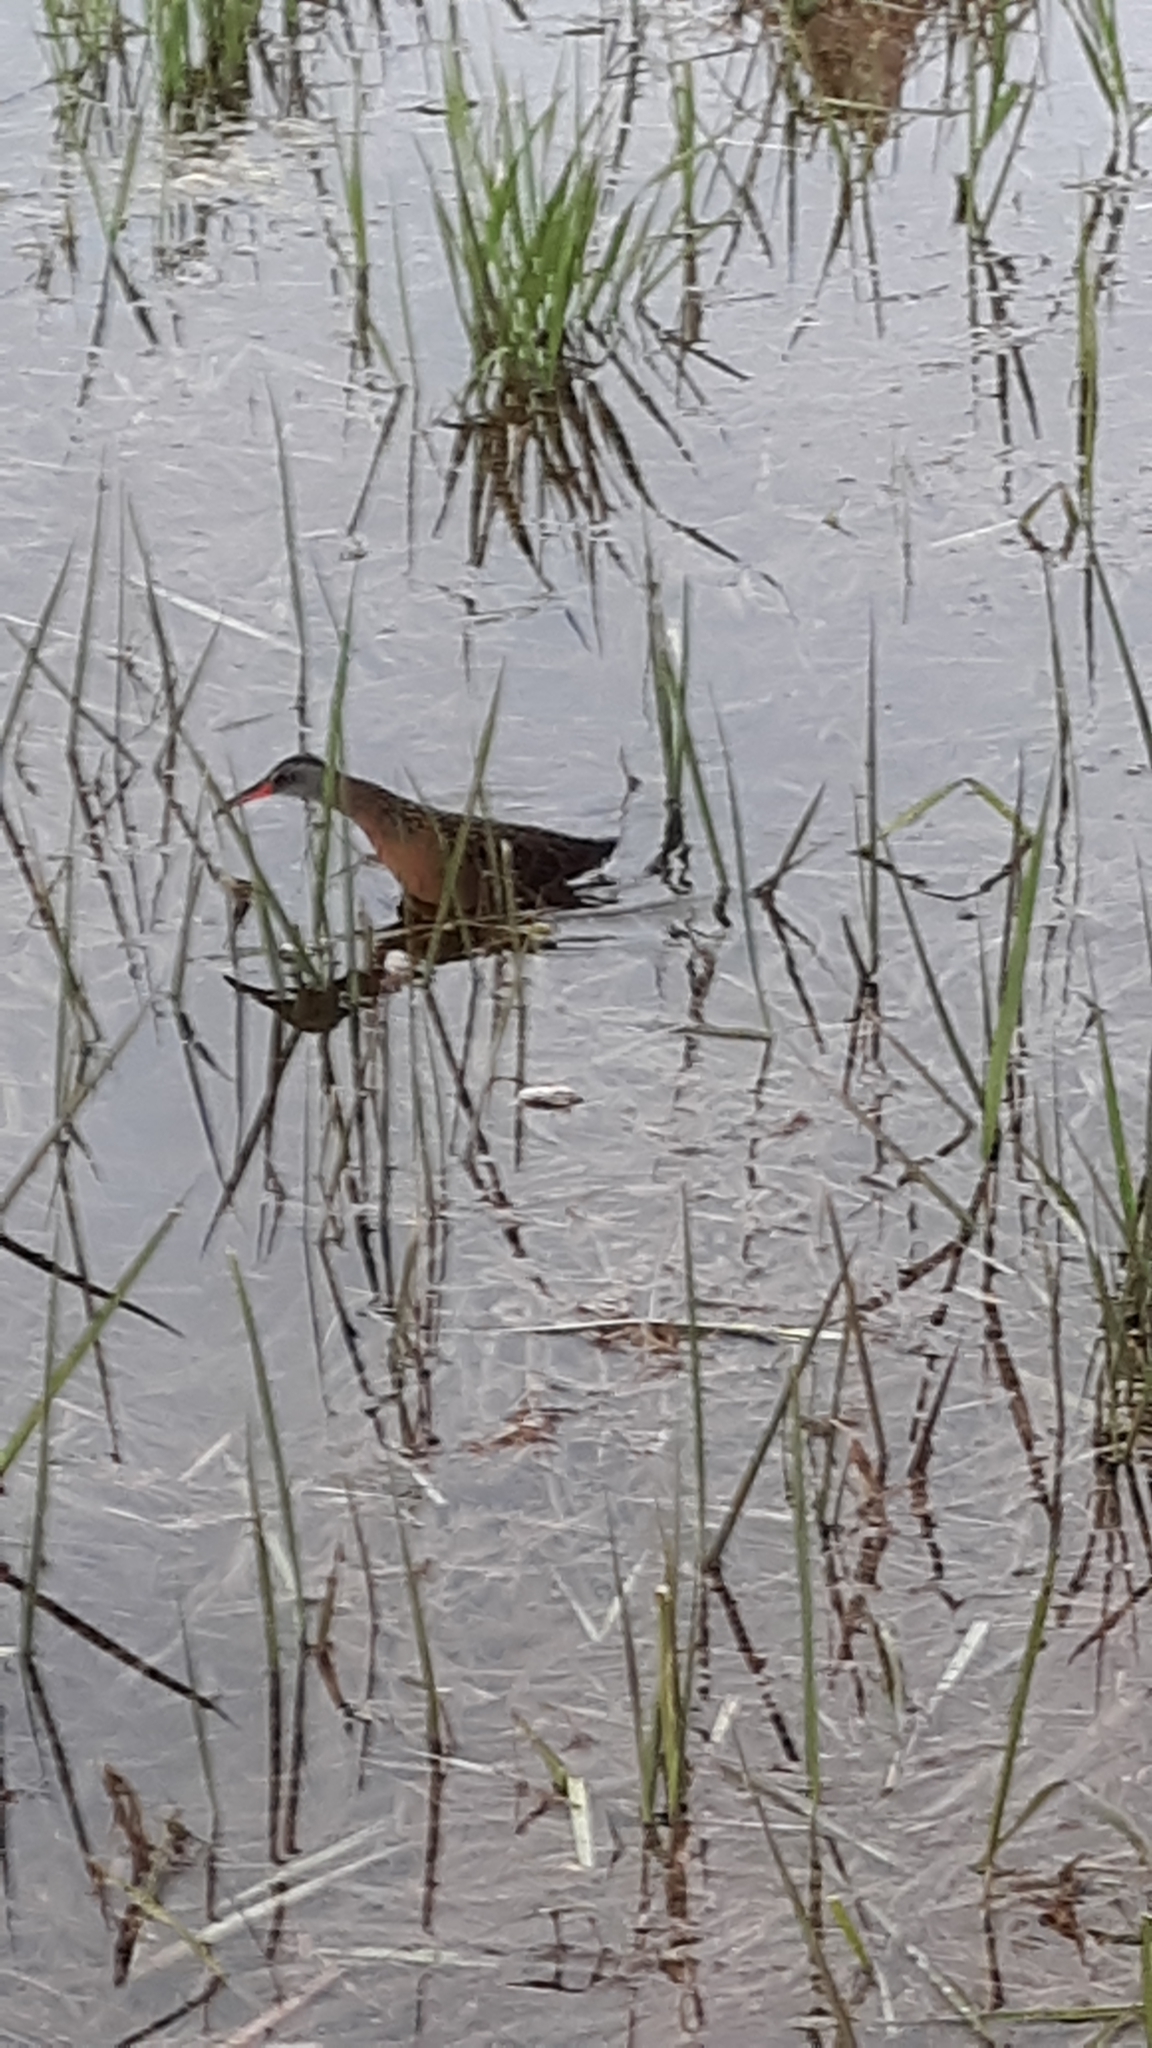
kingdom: Animalia
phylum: Chordata
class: Aves
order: Gruiformes
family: Rallidae
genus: Rallus
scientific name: Rallus limicola
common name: Virginia rail
